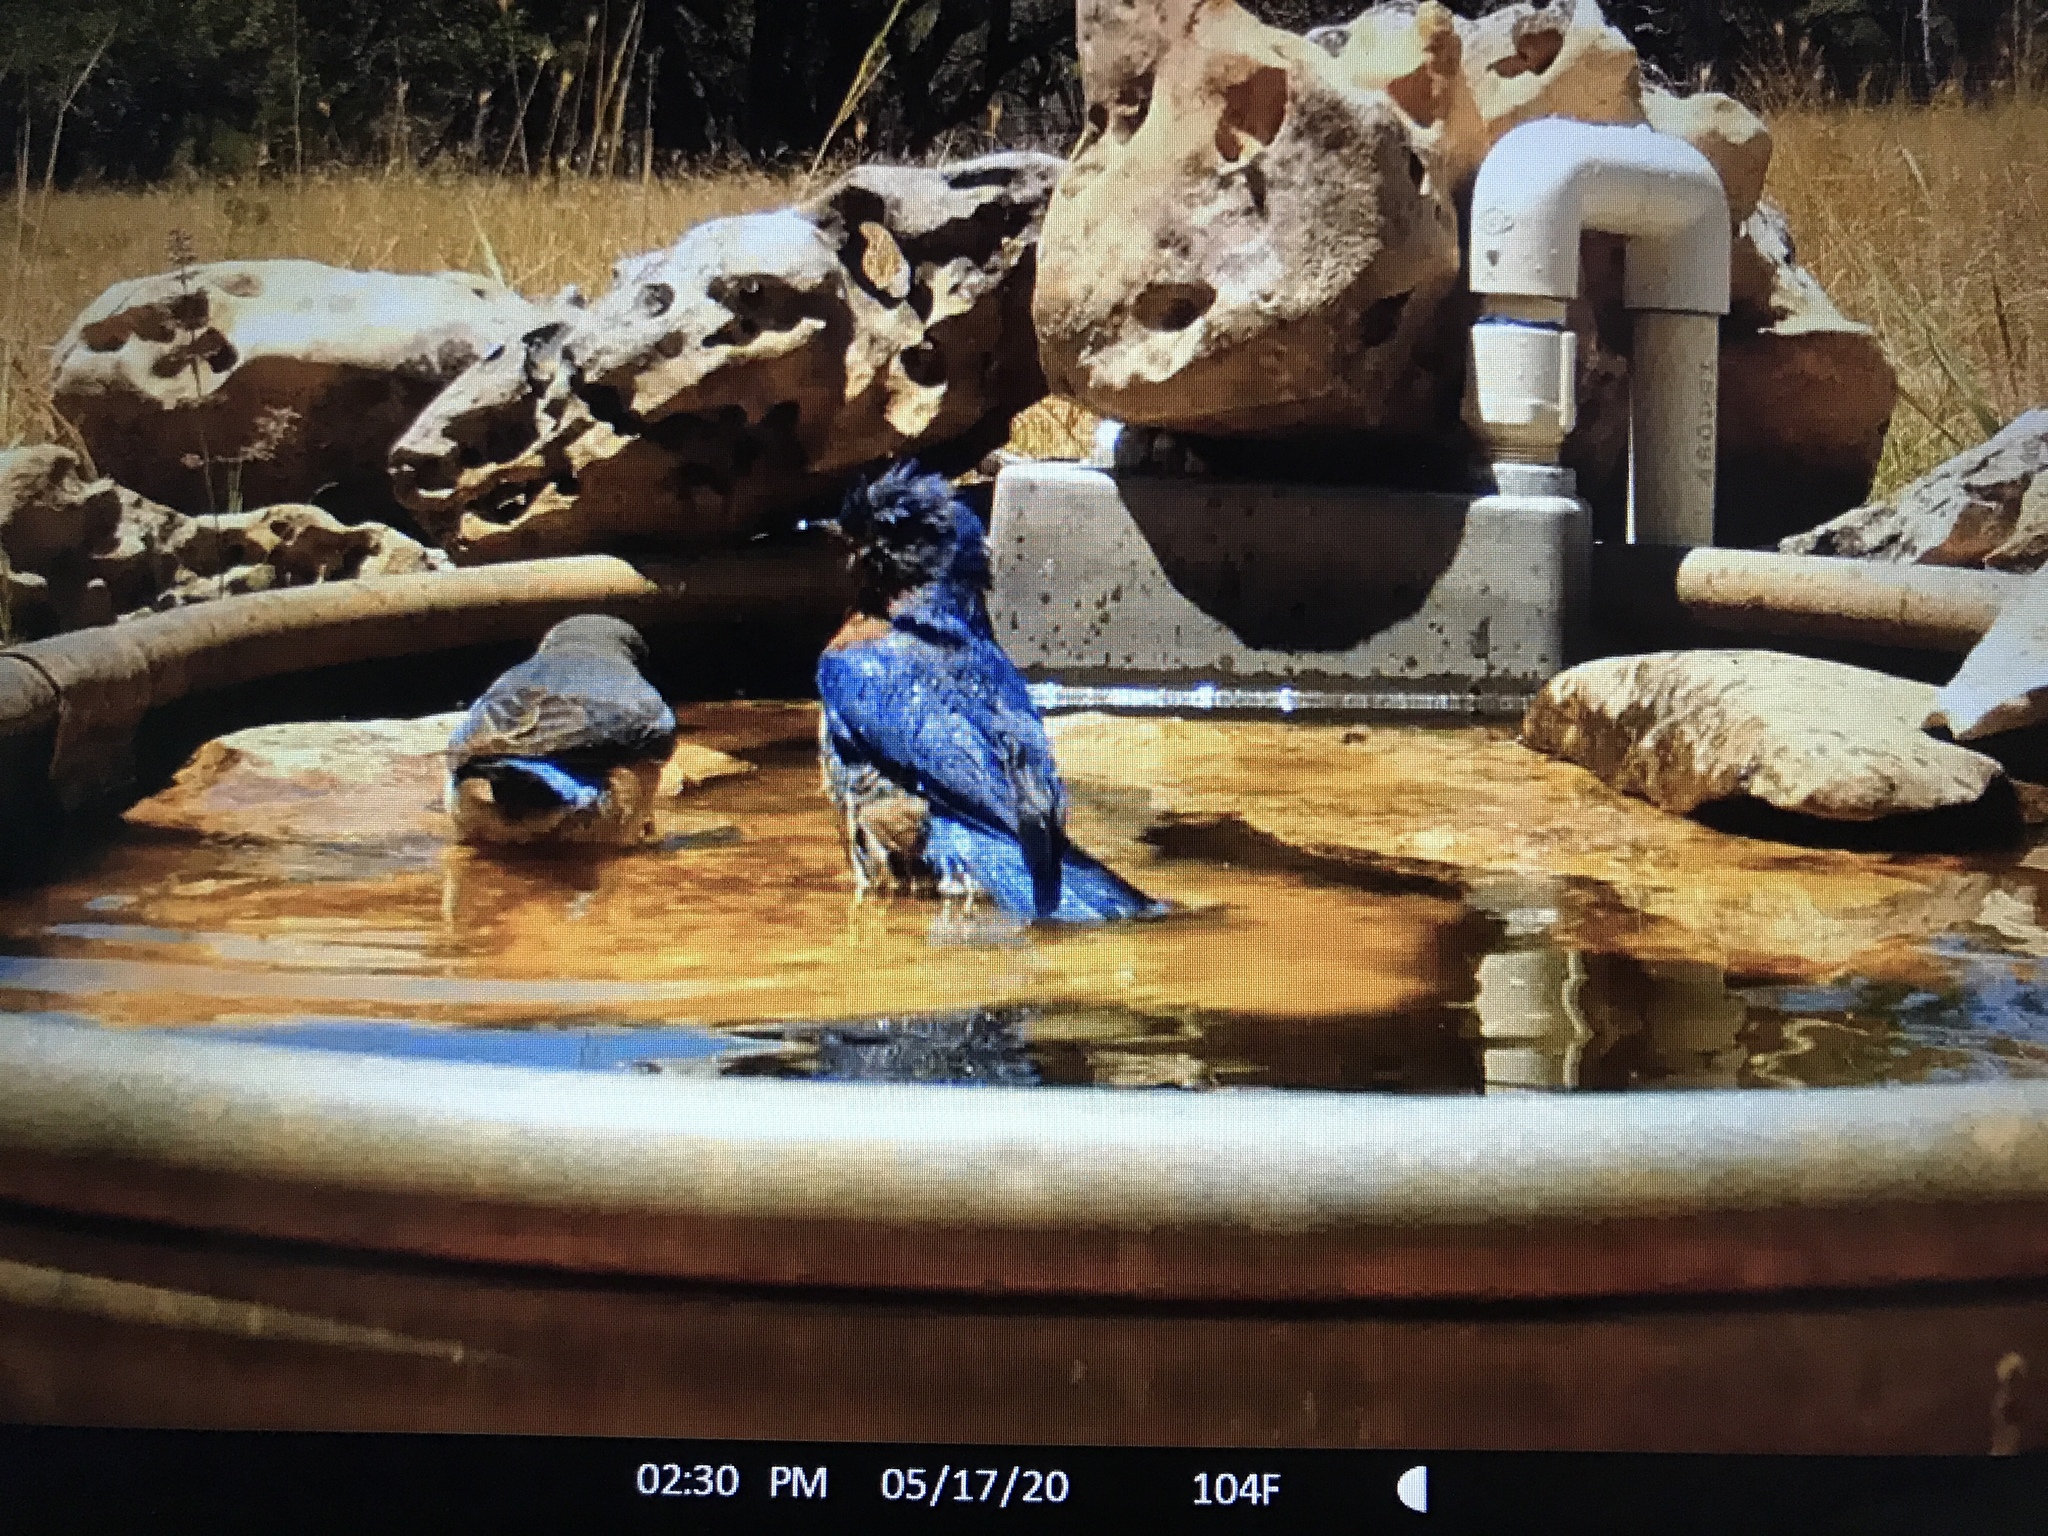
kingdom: Animalia
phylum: Chordata
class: Aves
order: Passeriformes
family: Turdidae
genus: Sialia
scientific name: Sialia sialis
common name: Eastern bluebird
